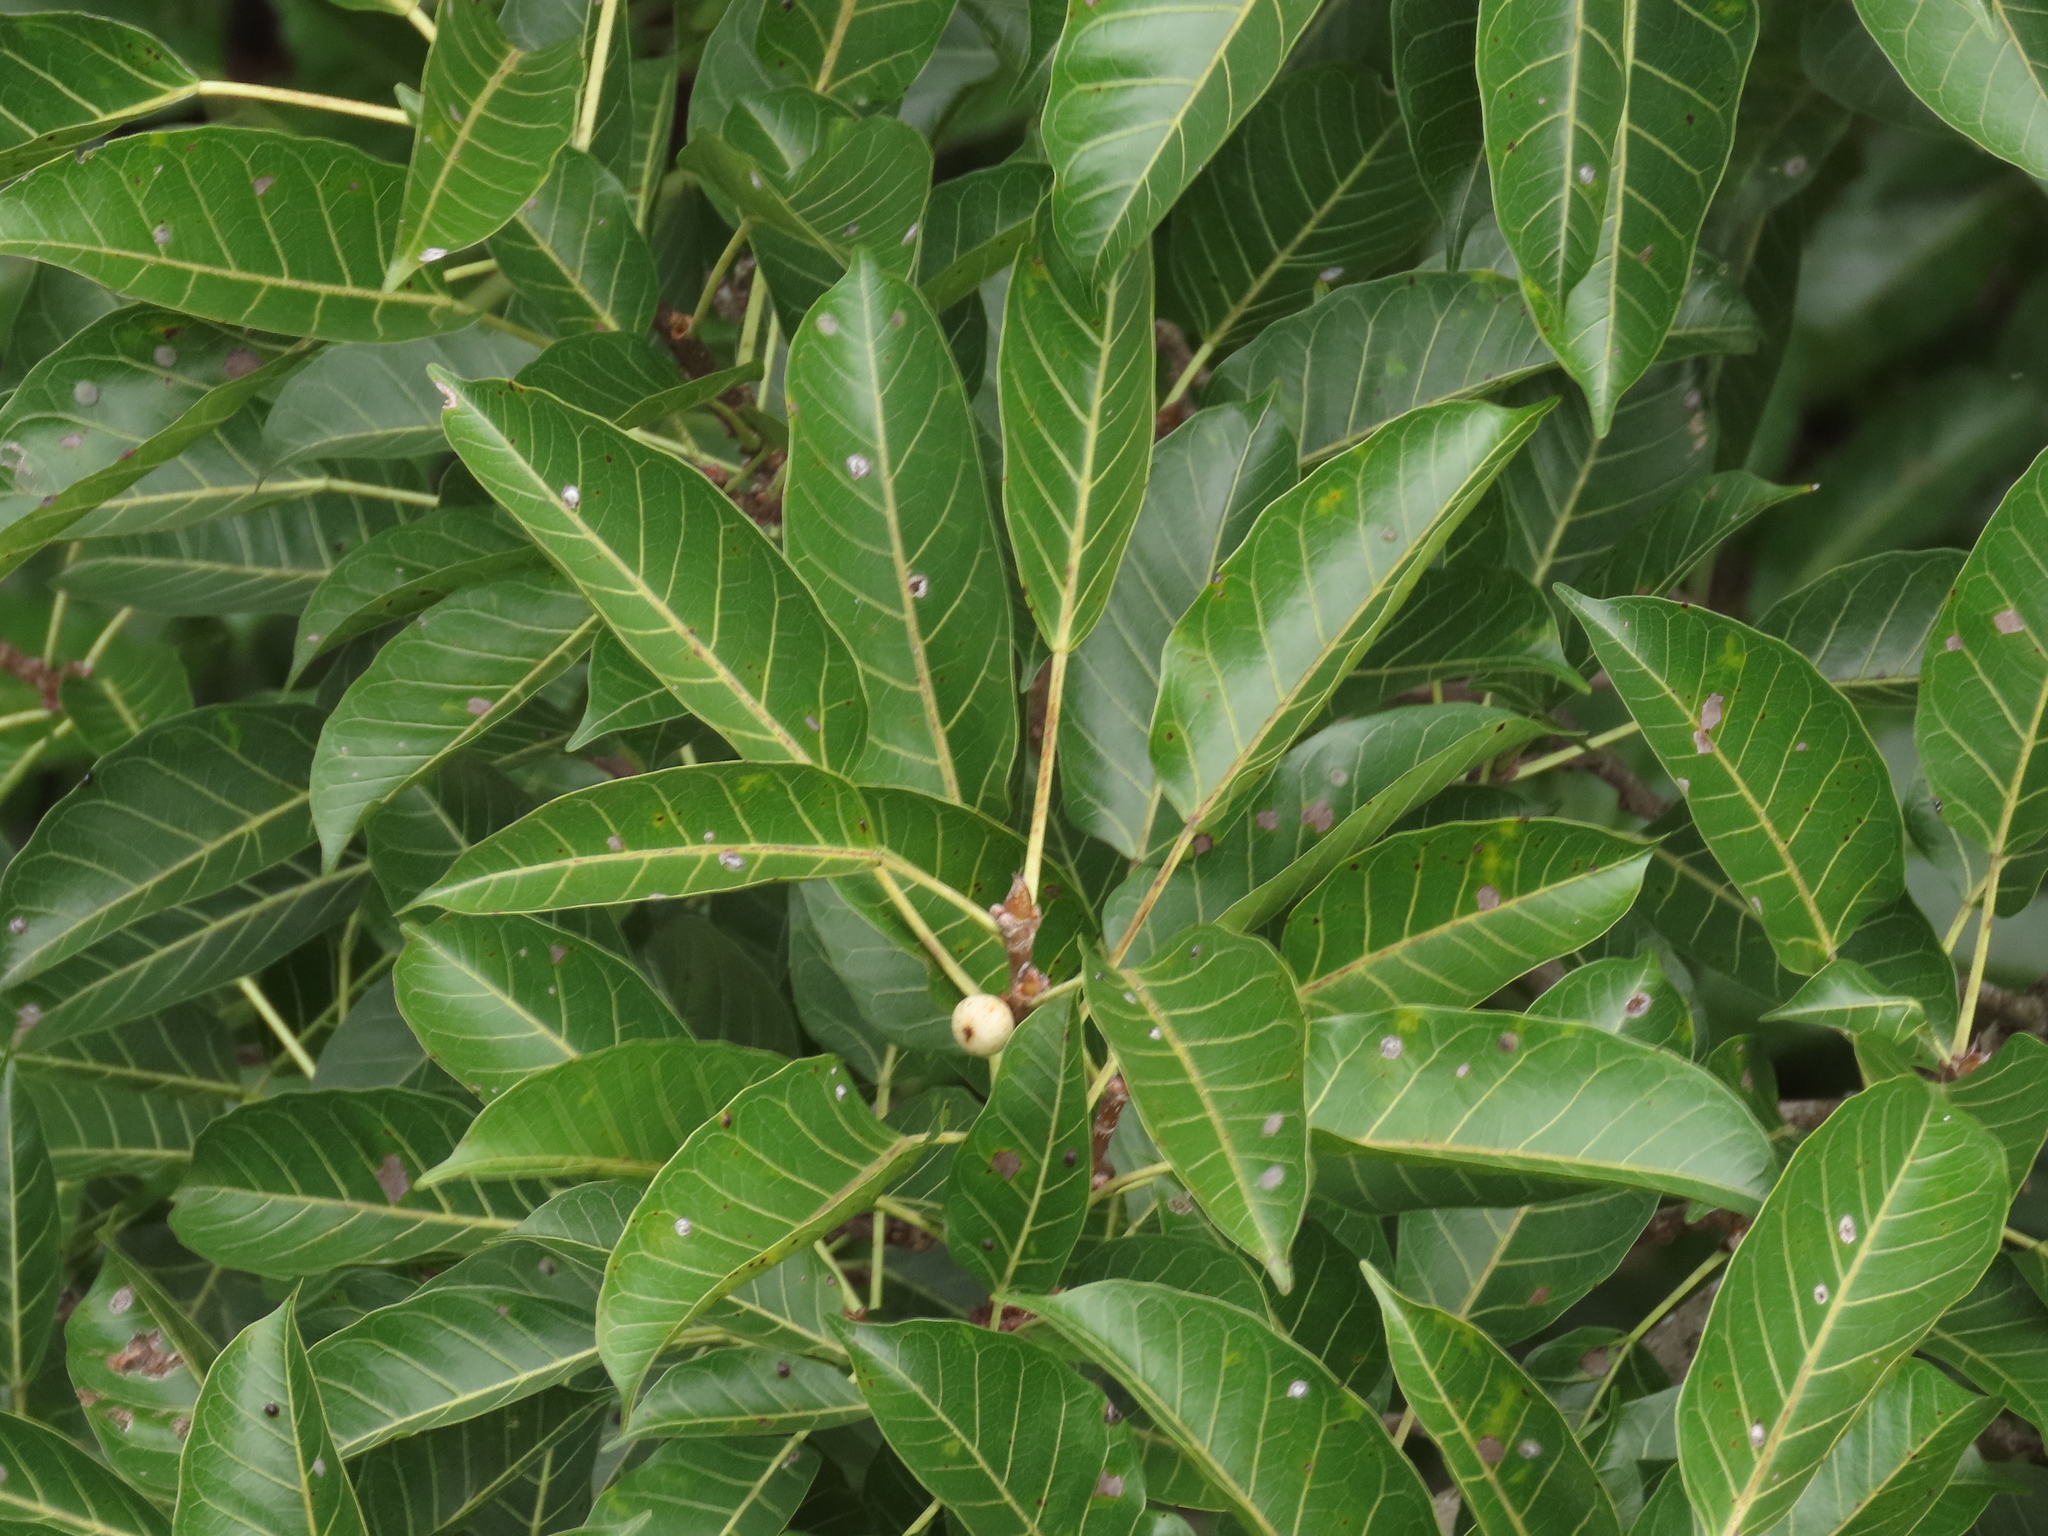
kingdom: Plantae
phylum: Tracheophyta
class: Magnoliopsida
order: Rosales
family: Moraceae
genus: Ficus
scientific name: Ficus virens
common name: Spotted fig
